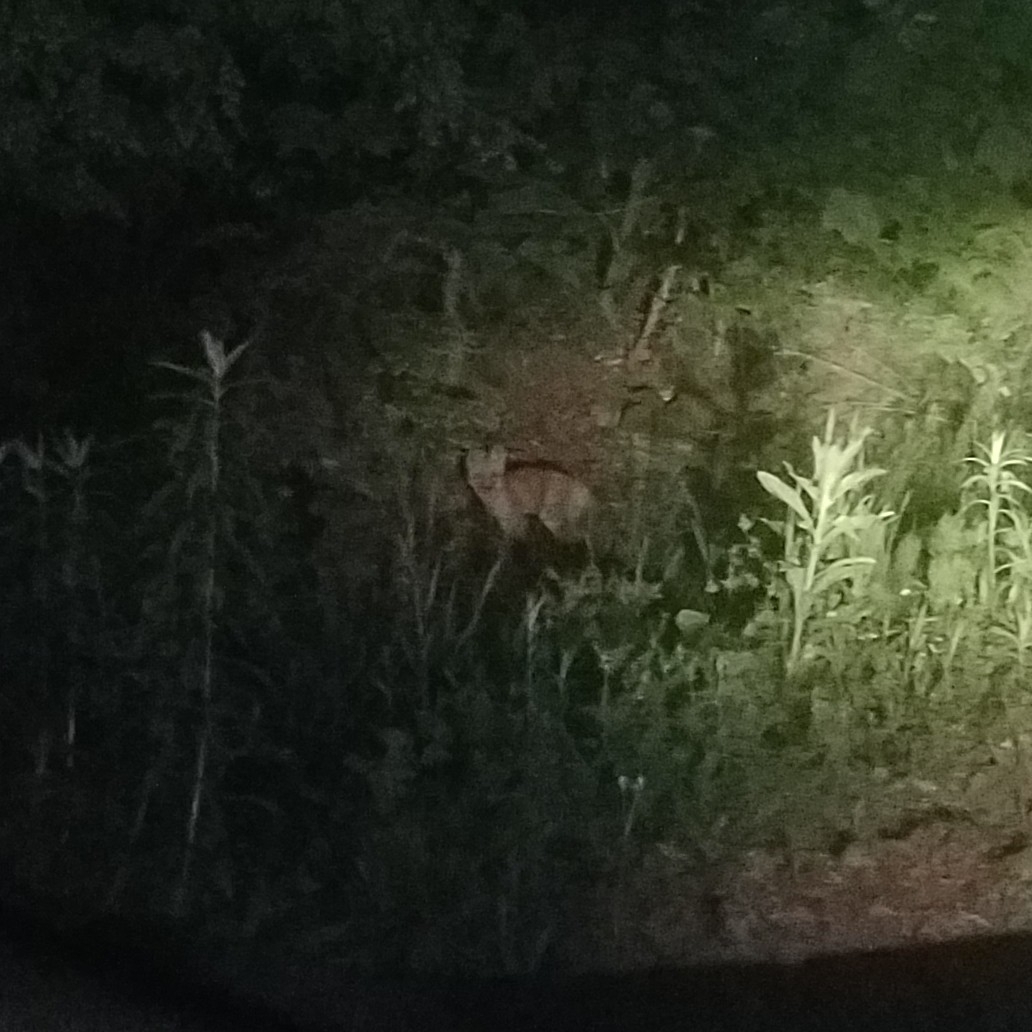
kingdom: Animalia
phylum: Chordata
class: Mammalia
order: Carnivora
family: Canidae
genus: Urocyon
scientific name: Urocyon cinereoargenteus
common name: Gray fox
